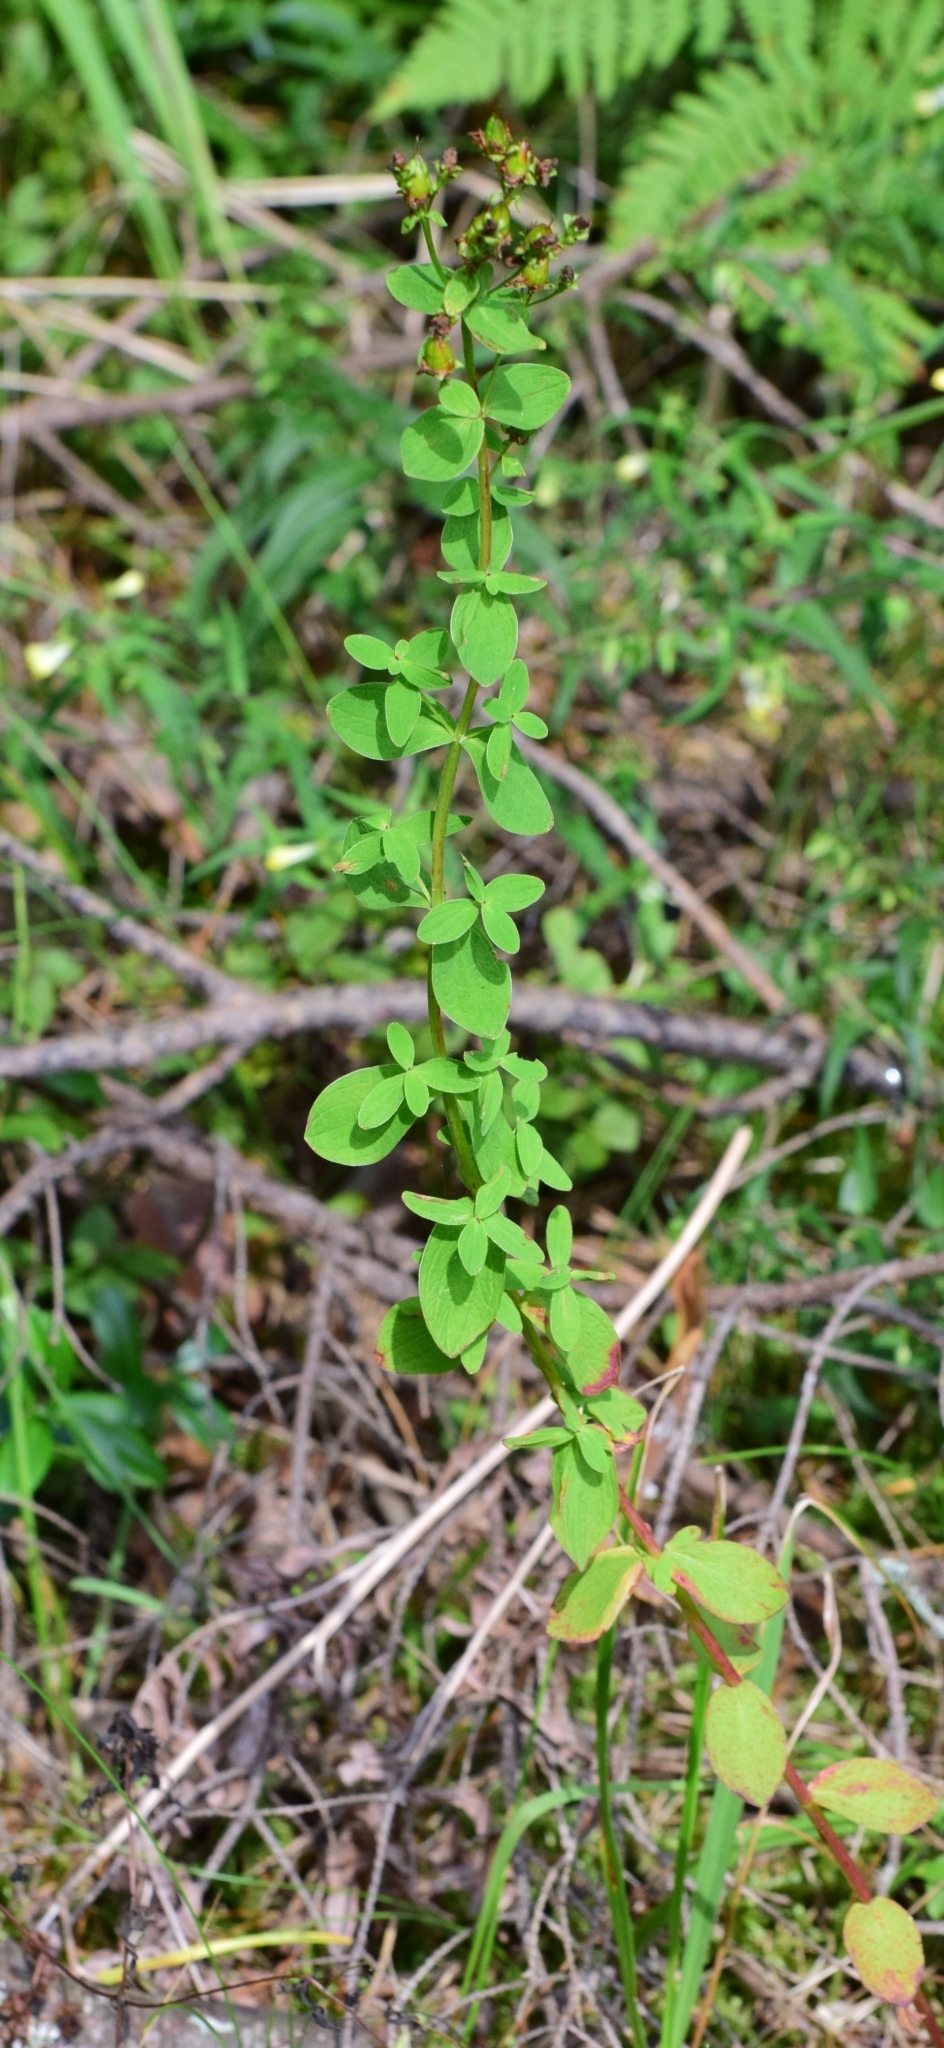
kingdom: Plantae
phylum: Tracheophyta
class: Magnoliopsida
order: Malpighiales
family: Hypericaceae
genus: Hypericum
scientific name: Hypericum maculatum
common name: Imperforate st. john's-wort
